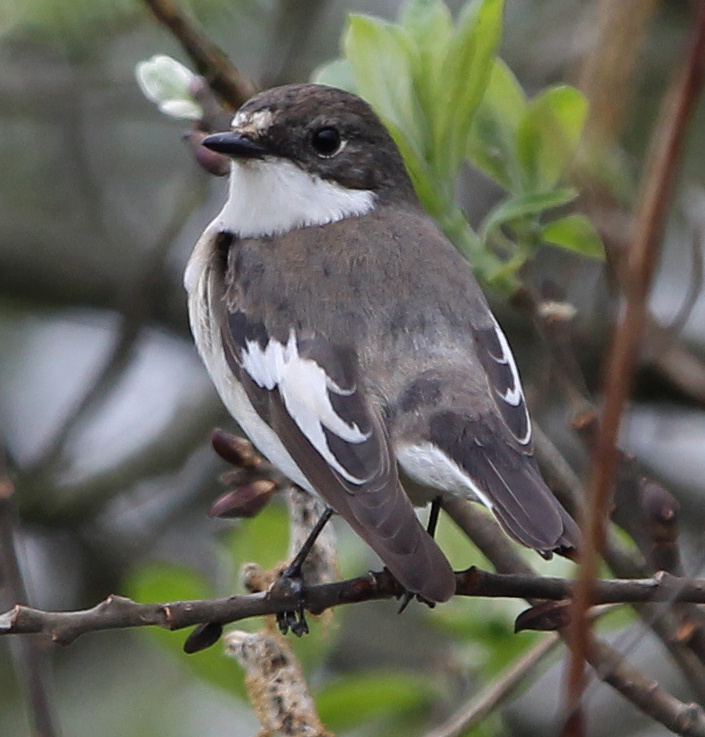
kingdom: Animalia
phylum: Chordata
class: Aves
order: Passeriformes
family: Muscicapidae
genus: Ficedula
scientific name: Ficedula hypoleuca
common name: European pied flycatcher
